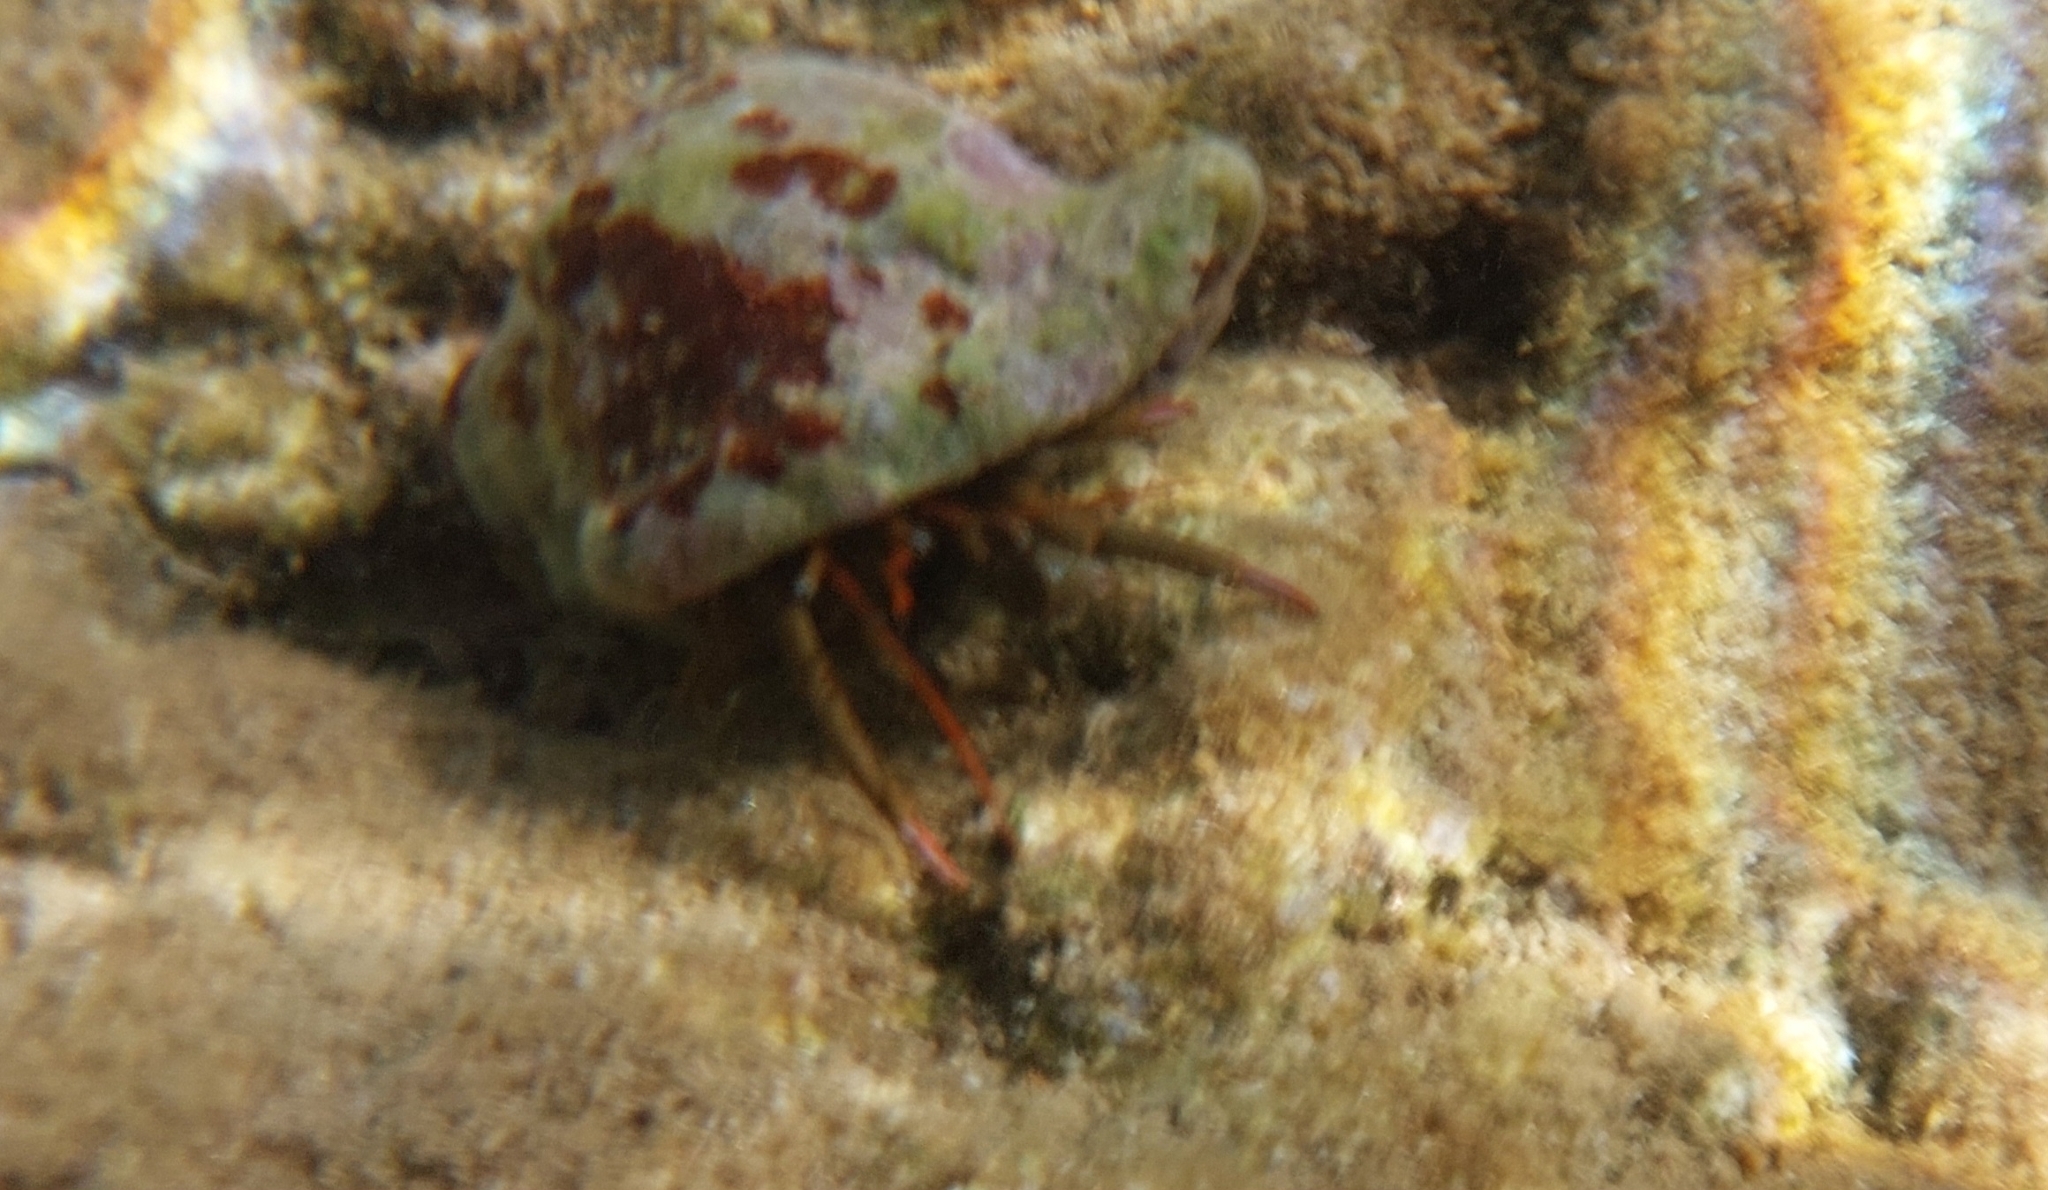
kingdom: Animalia
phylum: Arthropoda
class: Malacostraca
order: Decapoda
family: Diogenidae
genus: Clibanarius
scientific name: Clibanarius erythropus
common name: Hermit crab
